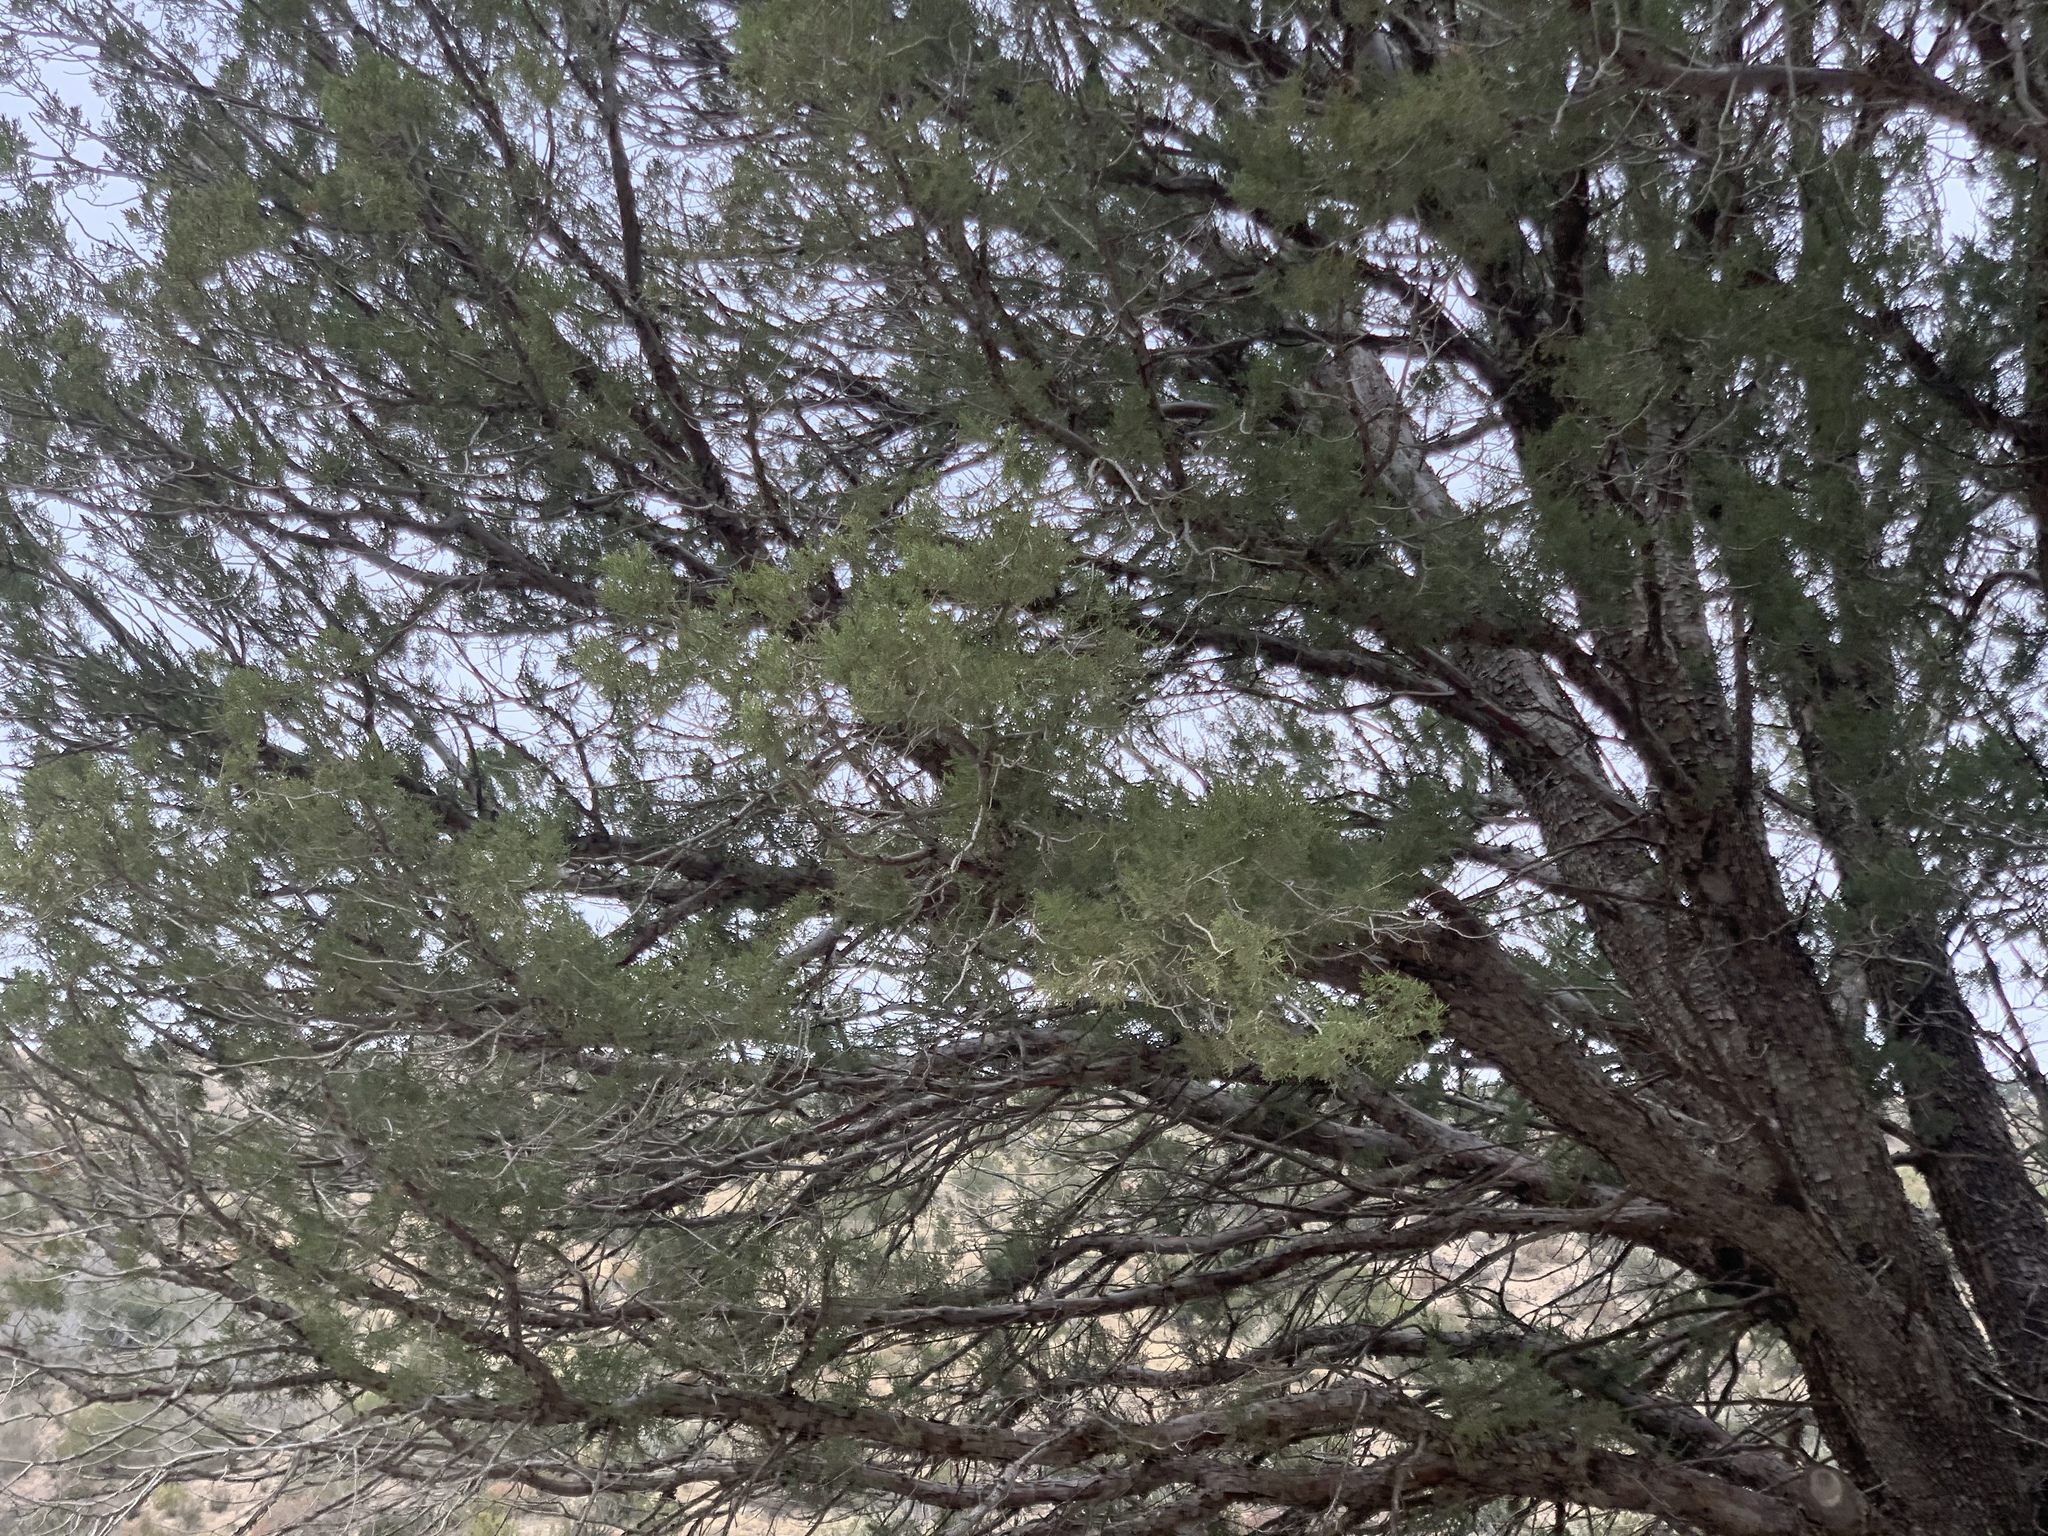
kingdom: Plantae
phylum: Tracheophyta
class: Pinopsida
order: Pinales
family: Cupressaceae
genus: Juniperus
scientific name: Juniperus deppeana
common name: Alligator juniper
